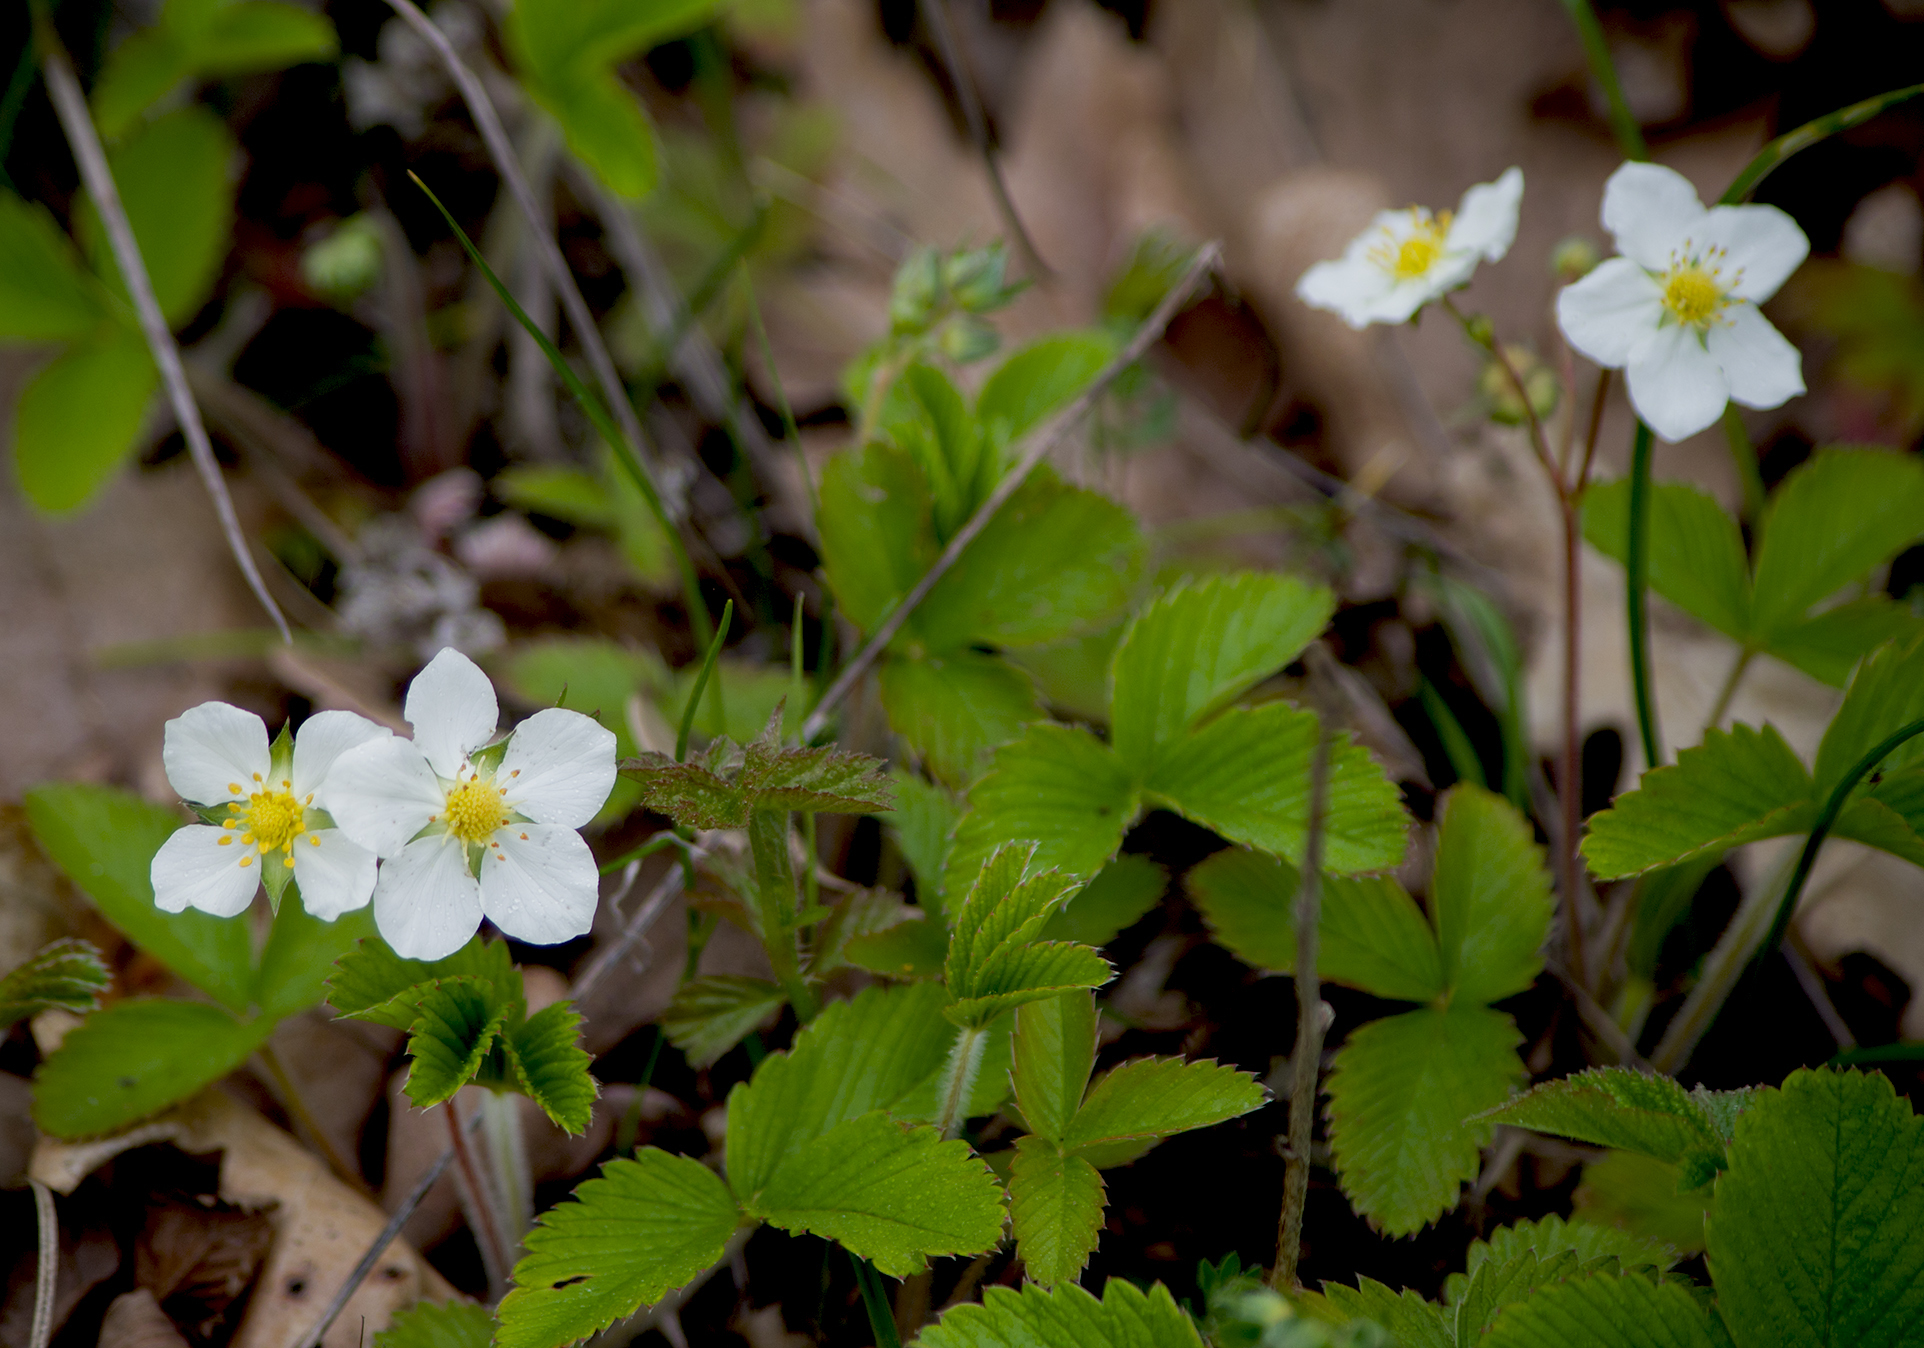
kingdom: Plantae
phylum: Tracheophyta
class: Magnoliopsida
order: Rosales
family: Rosaceae
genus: Fragaria
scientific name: Fragaria vesca
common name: Wild strawberry
